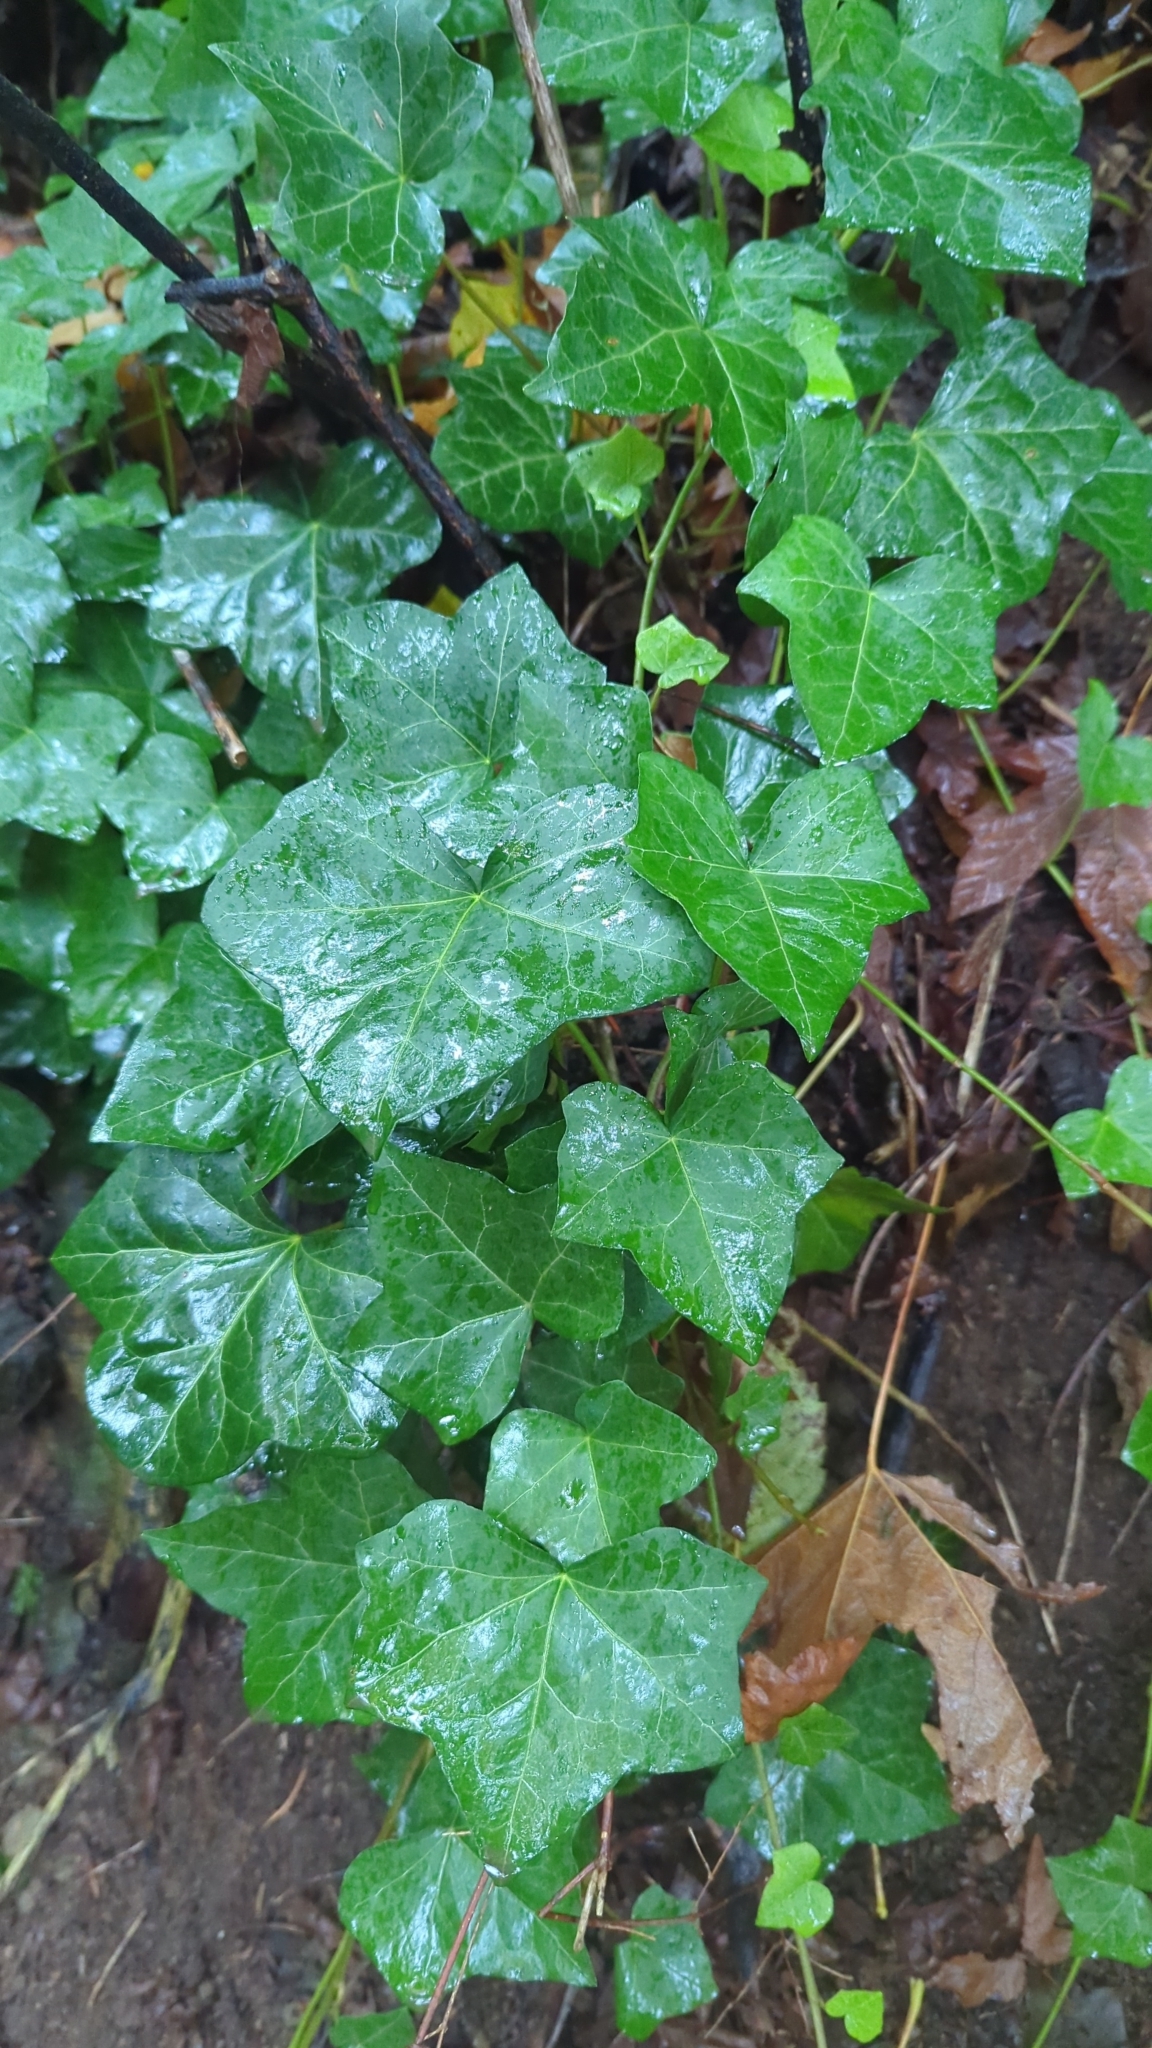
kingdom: Plantae
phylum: Tracheophyta
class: Magnoliopsida
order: Apiales
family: Araliaceae
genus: Hedera
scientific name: Hedera helix
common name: Ivy
